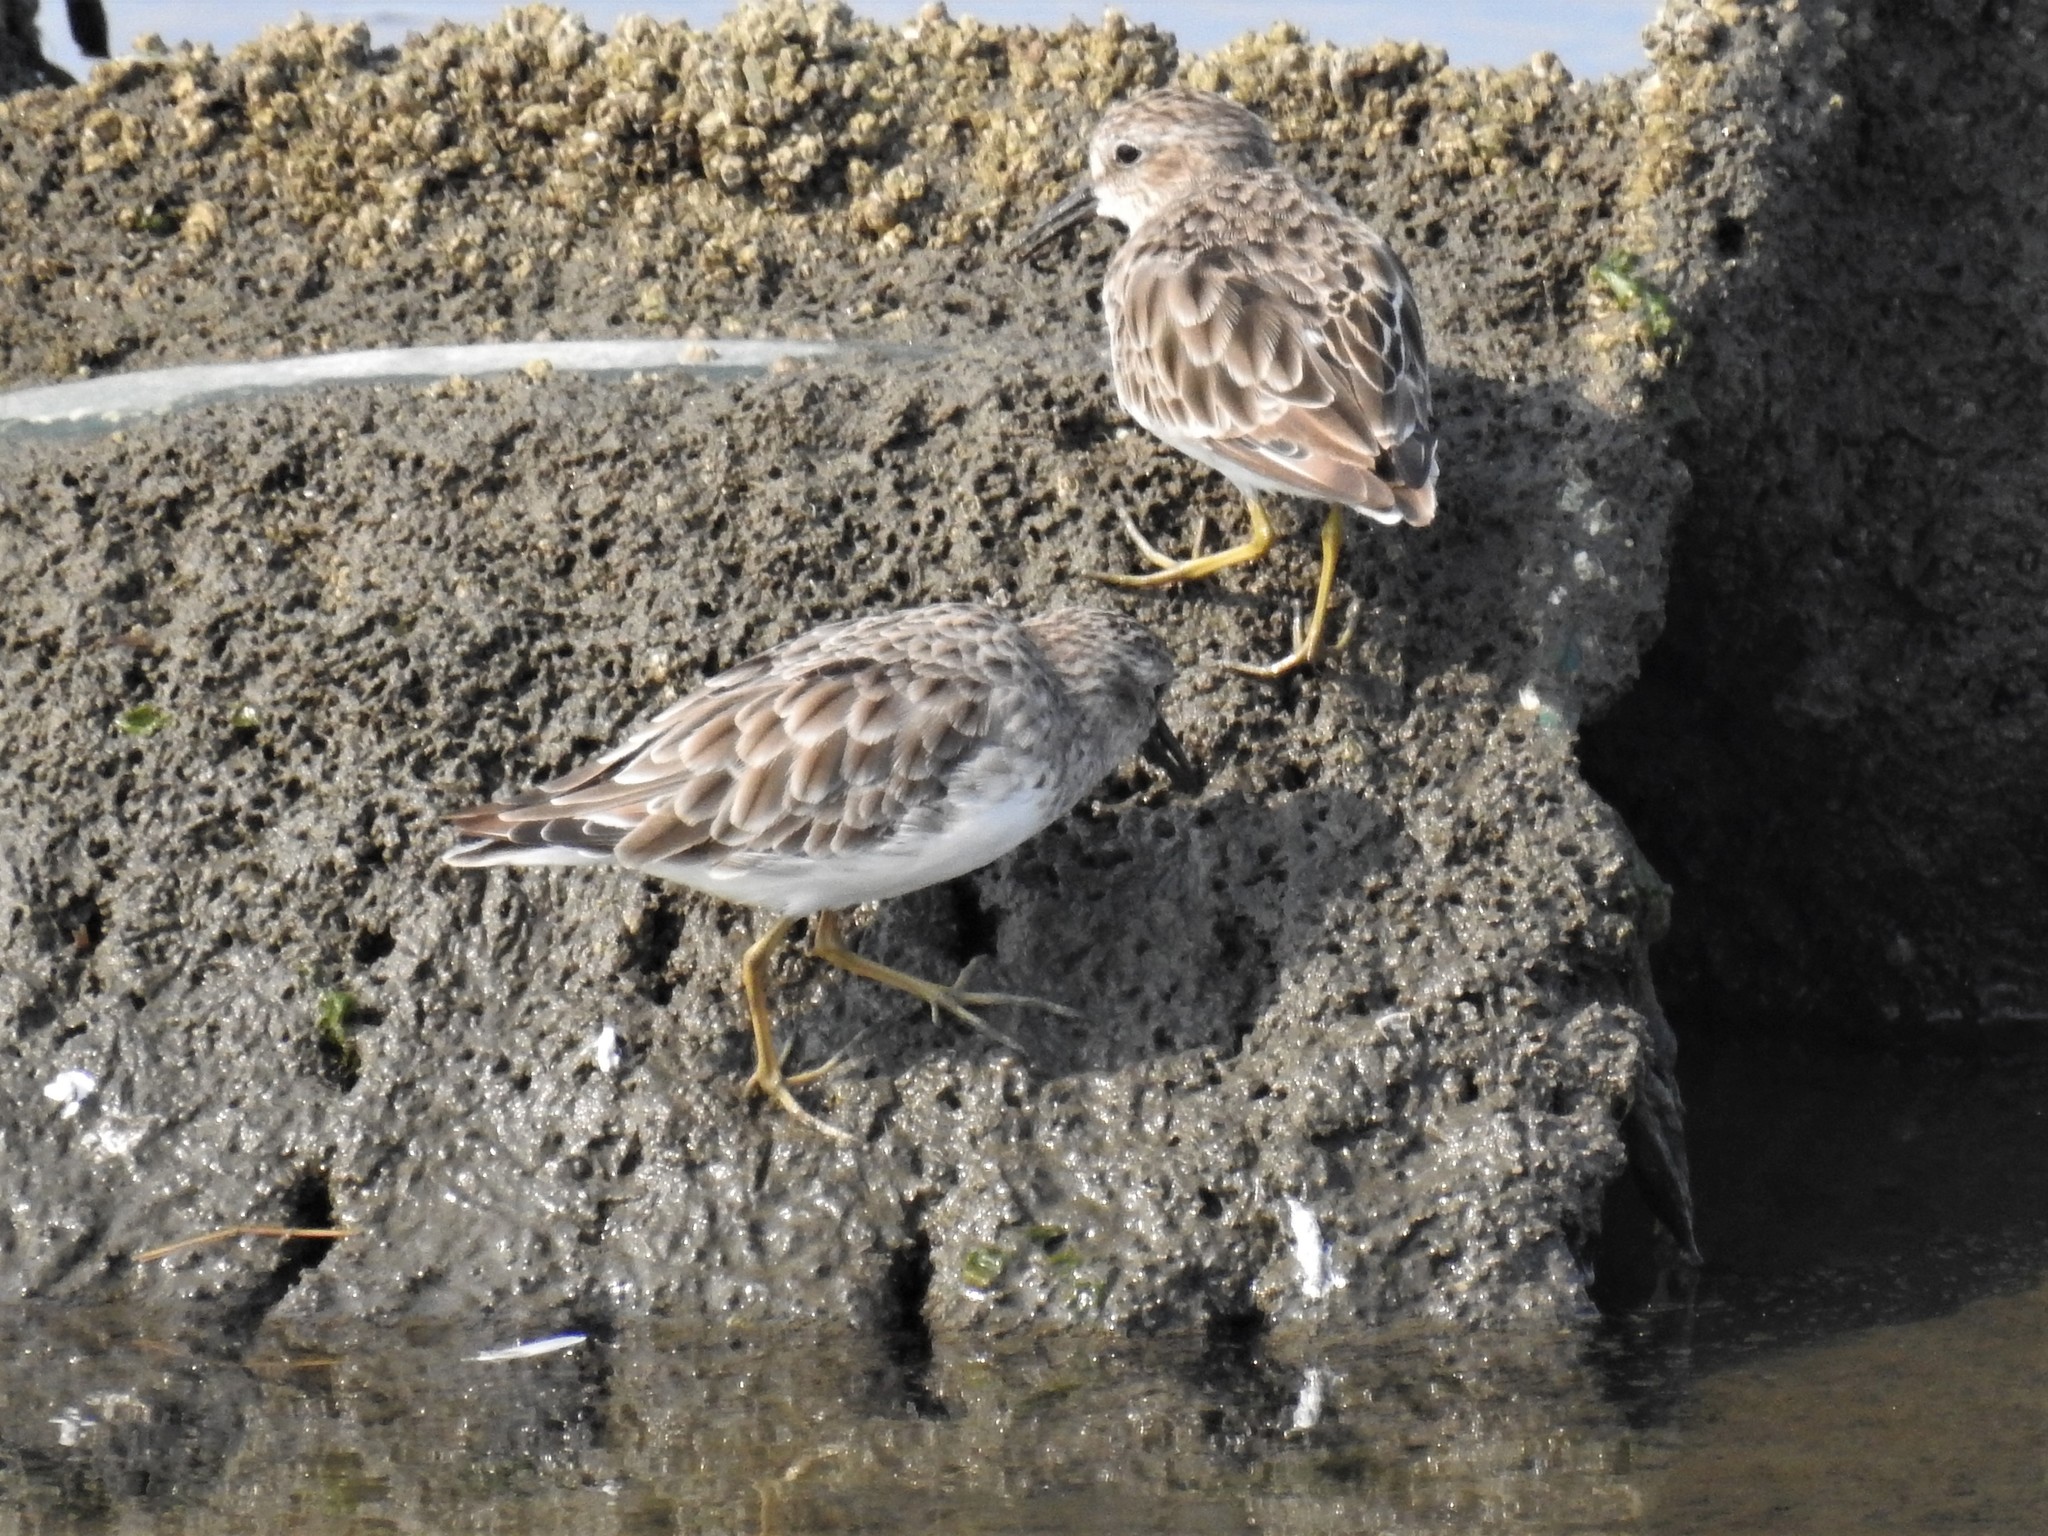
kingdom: Animalia
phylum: Chordata
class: Aves
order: Charadriiformes
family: Scolopacidae
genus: Calidris
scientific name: Calidris minutilla
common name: Least sandpiper
